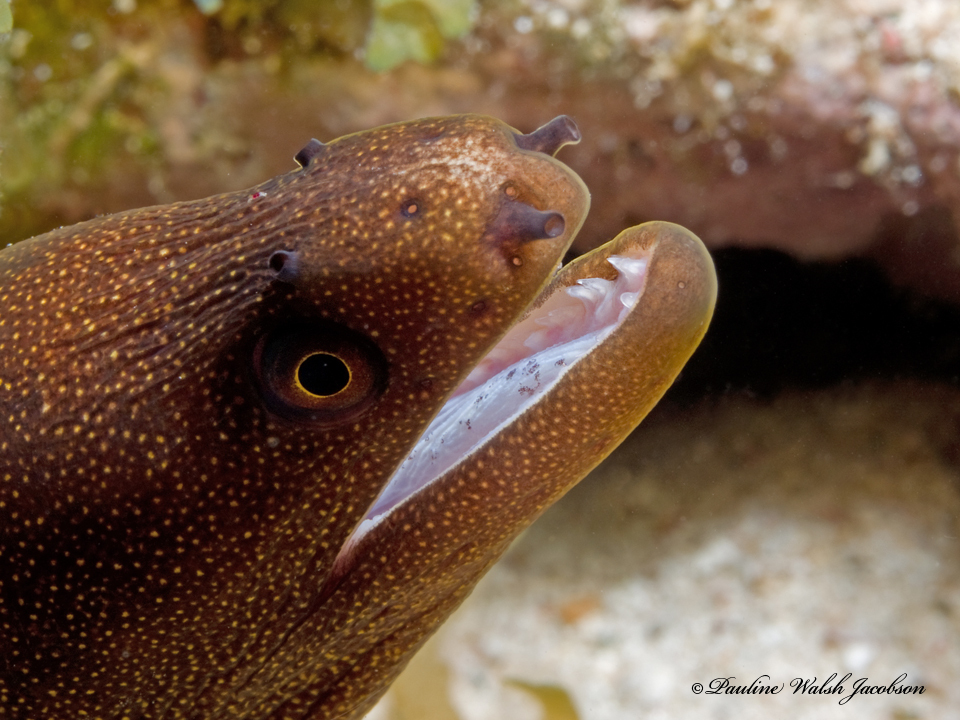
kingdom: Animalia
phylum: Chordata
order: Anguilliformes
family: Muraenidae
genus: Gymnothorax
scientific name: Gymnothorax miliaris
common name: Goldentail moray
